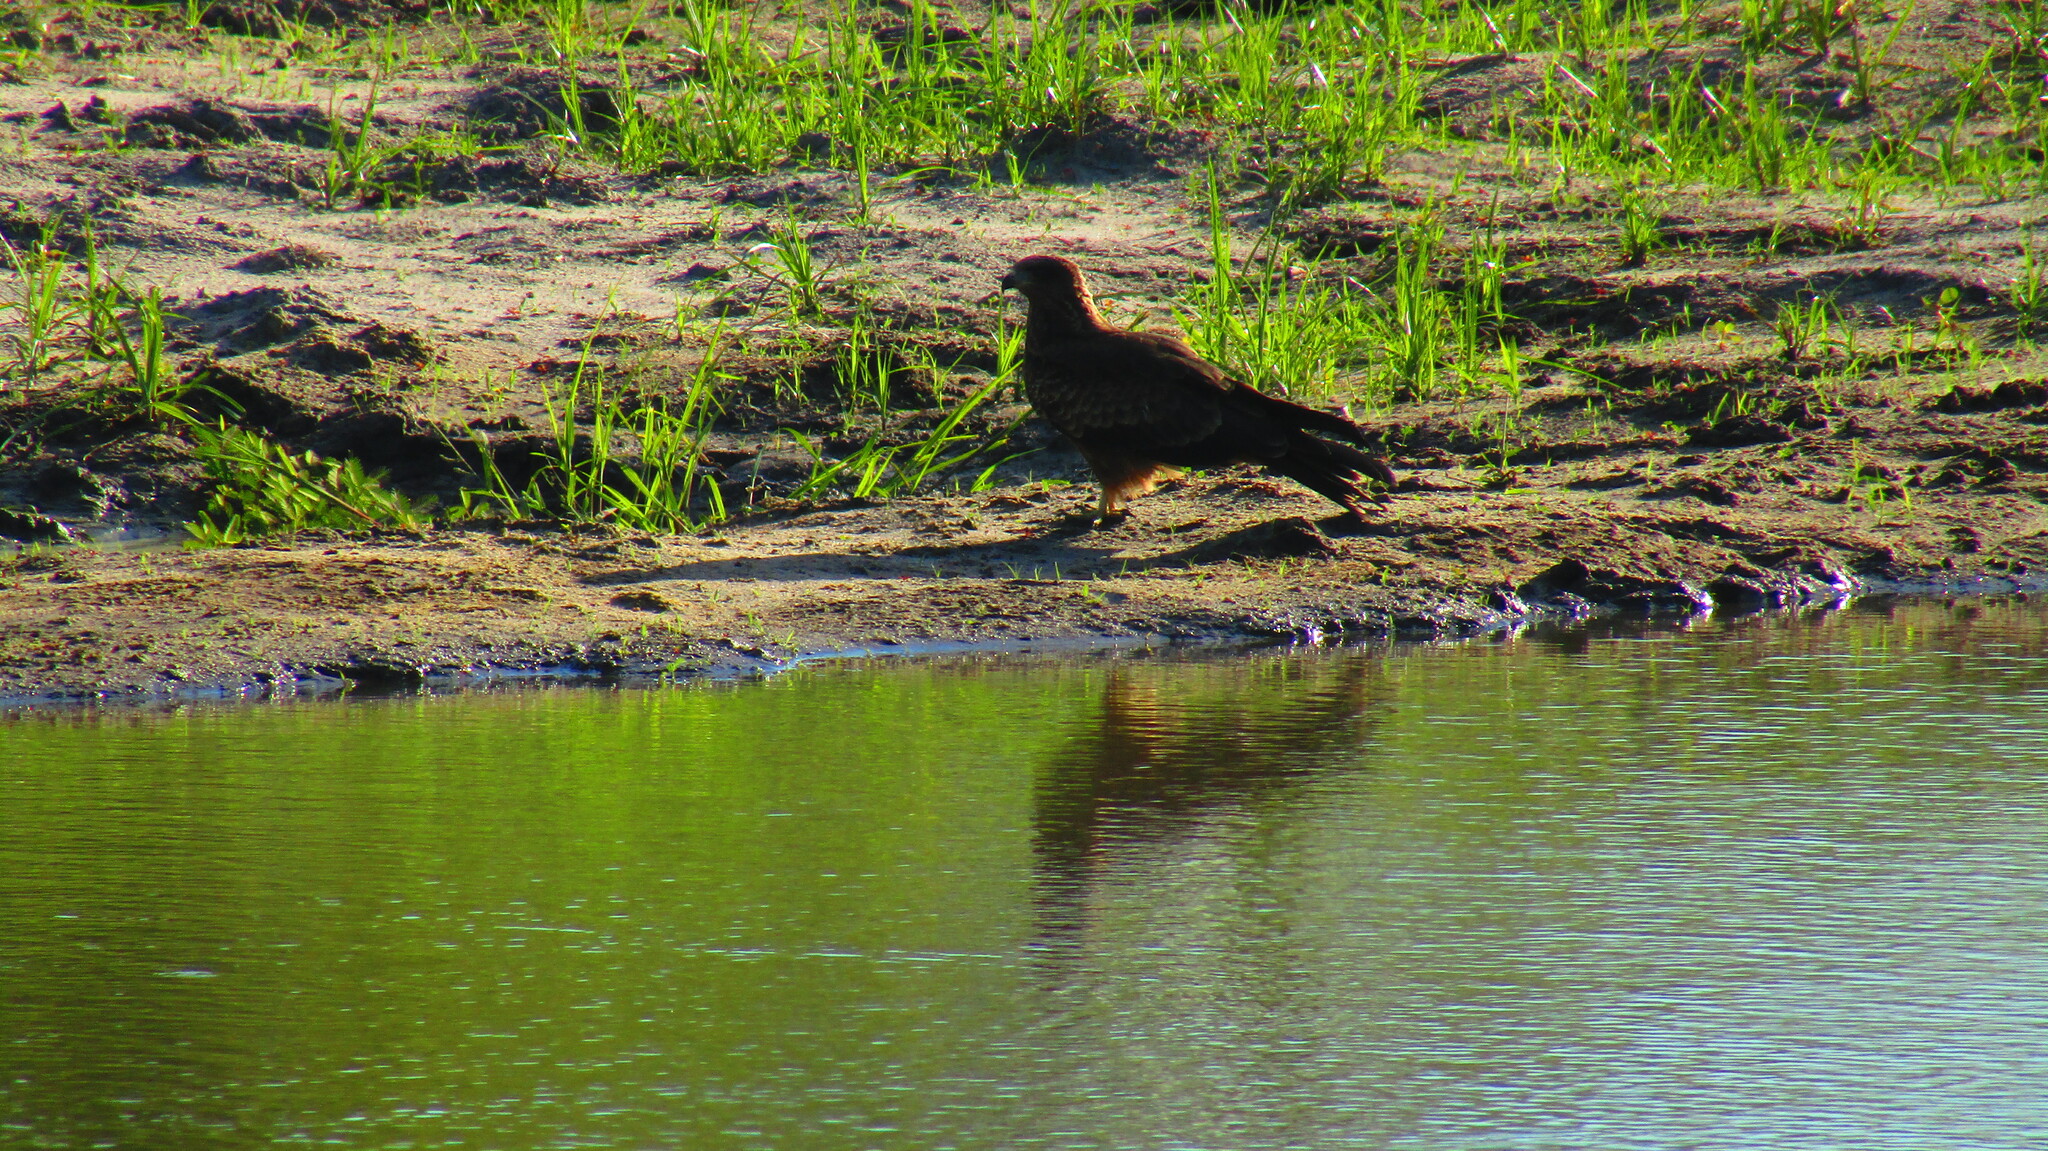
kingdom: Animalia
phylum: Chordata
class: Aves
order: Accipitriformes
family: Accipitridae
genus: Milvus
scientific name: Milvus migrans
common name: Black kite
